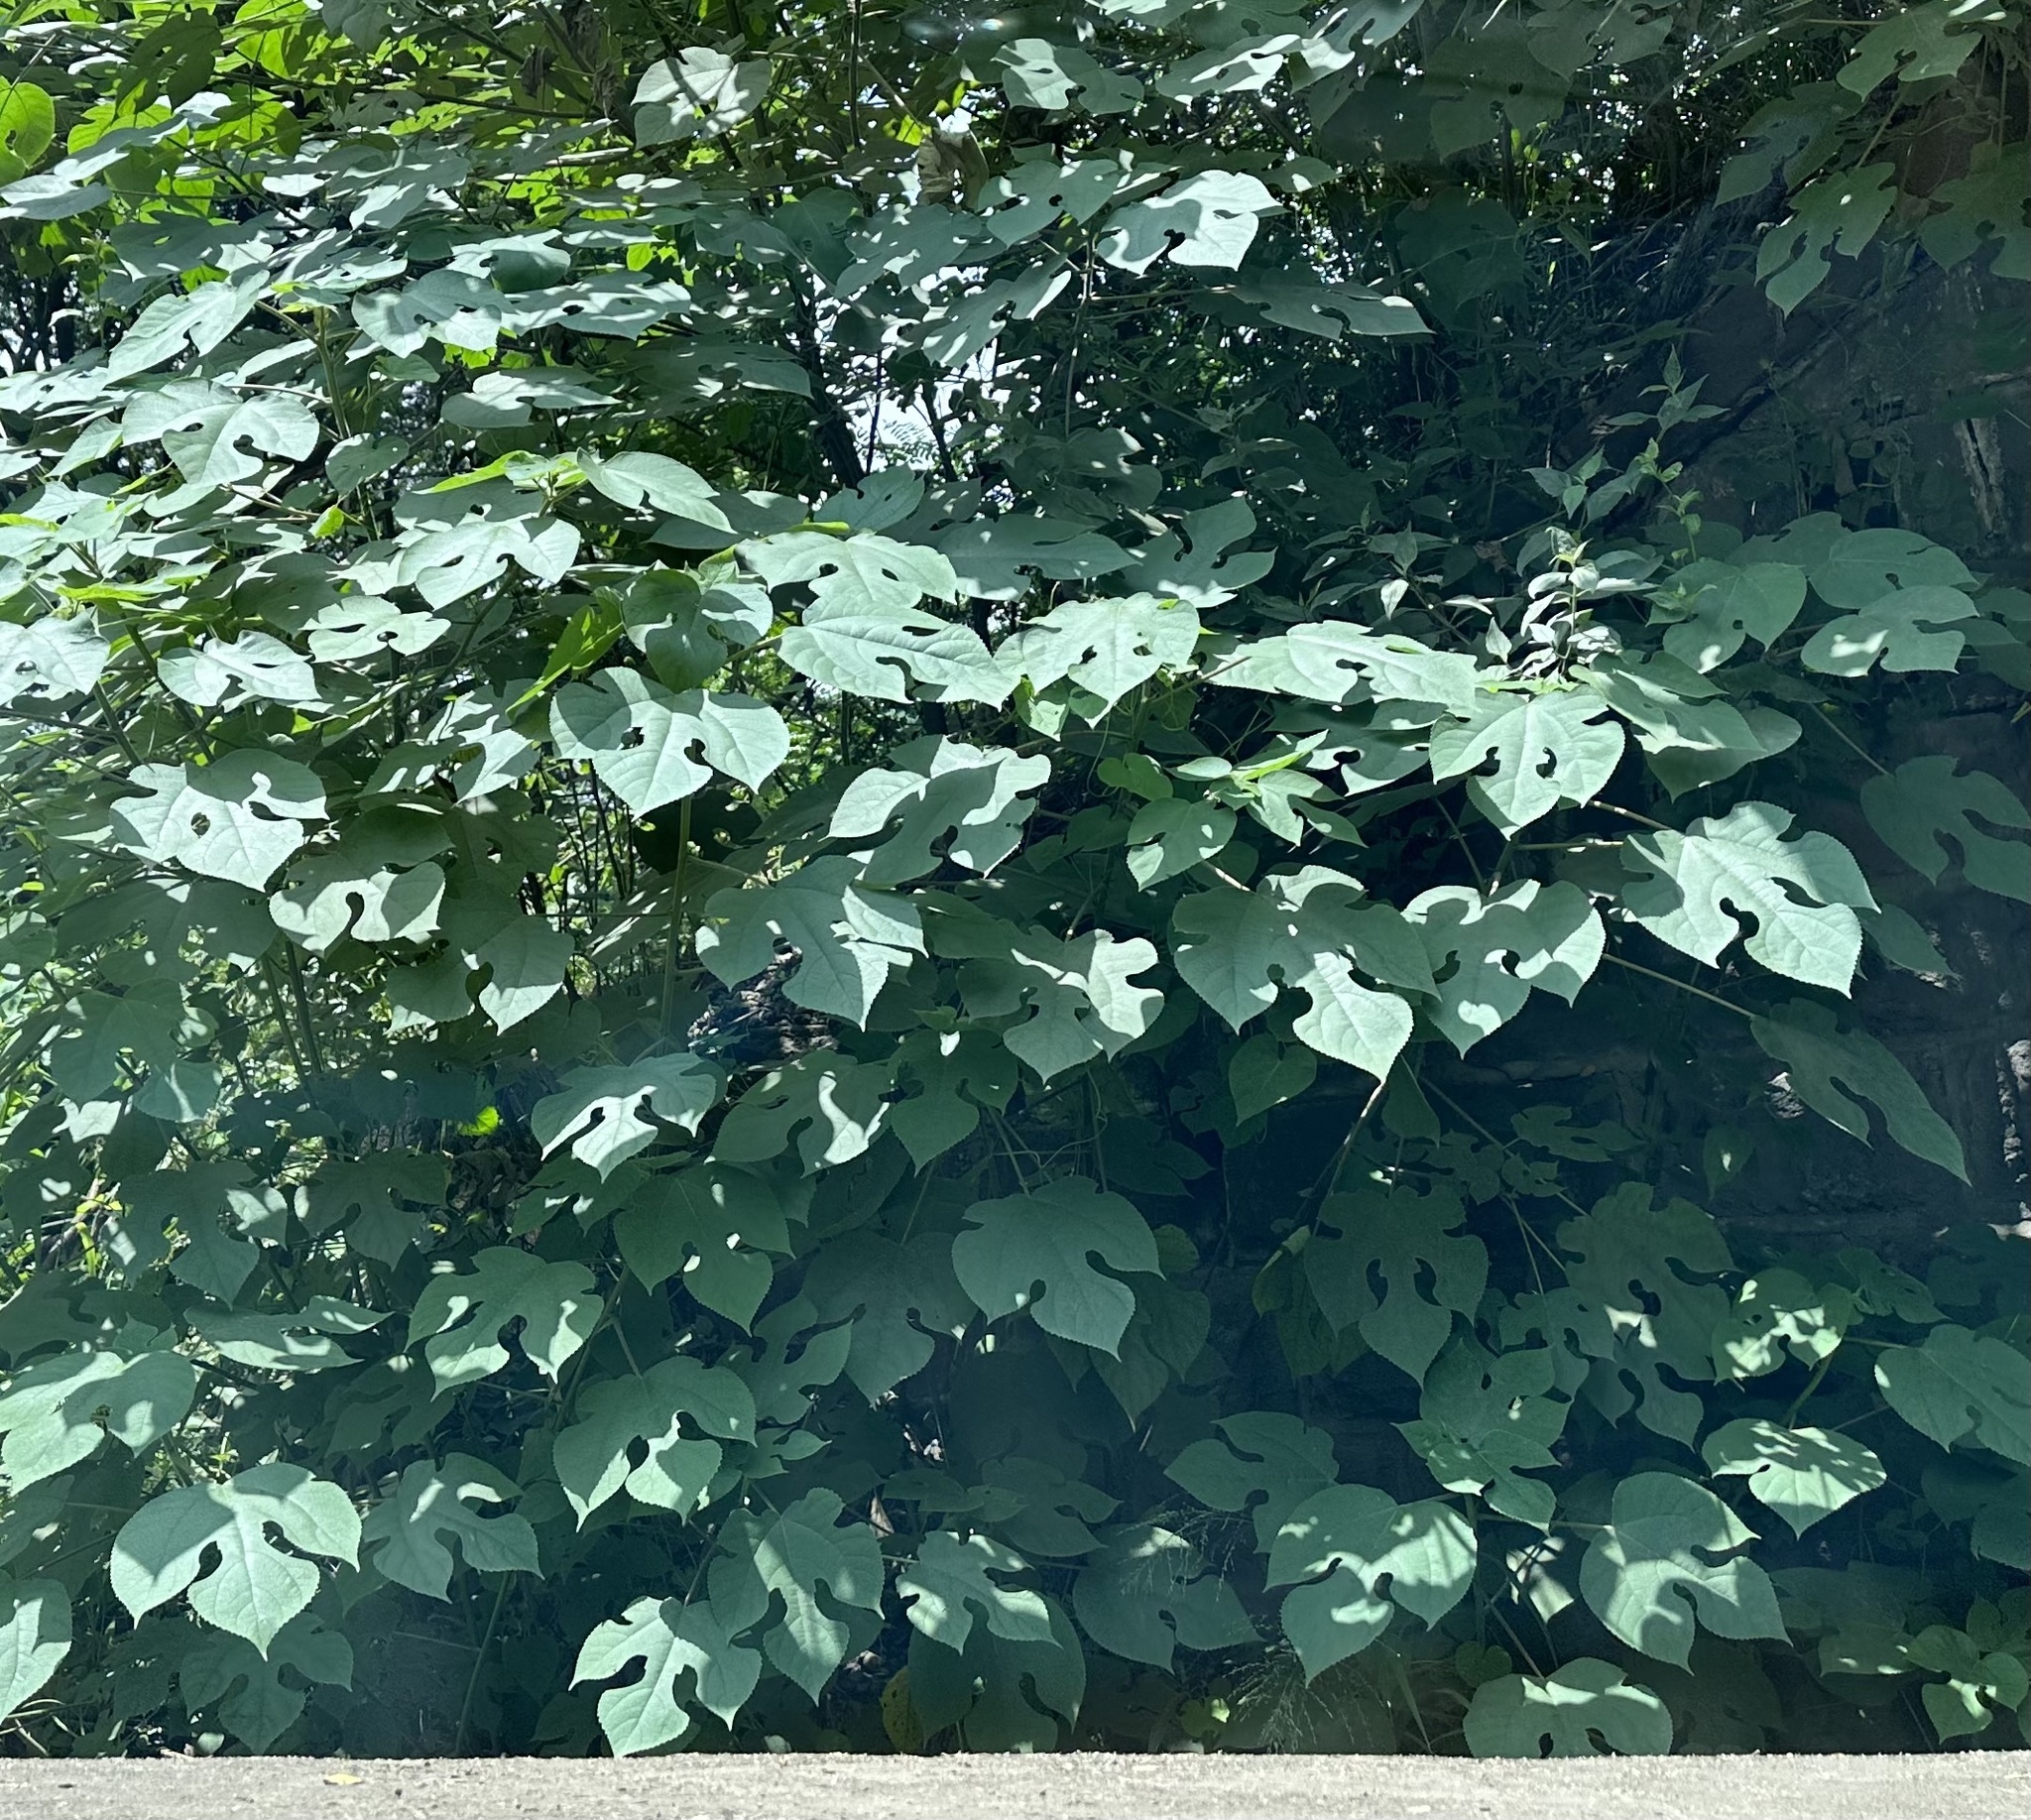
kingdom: Plantae
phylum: Tracheophyta
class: Magnoliopsida
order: Rosales
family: Moraceae
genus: Broussonetia
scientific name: Broussonetia papyrifera
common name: Paper mulberry
